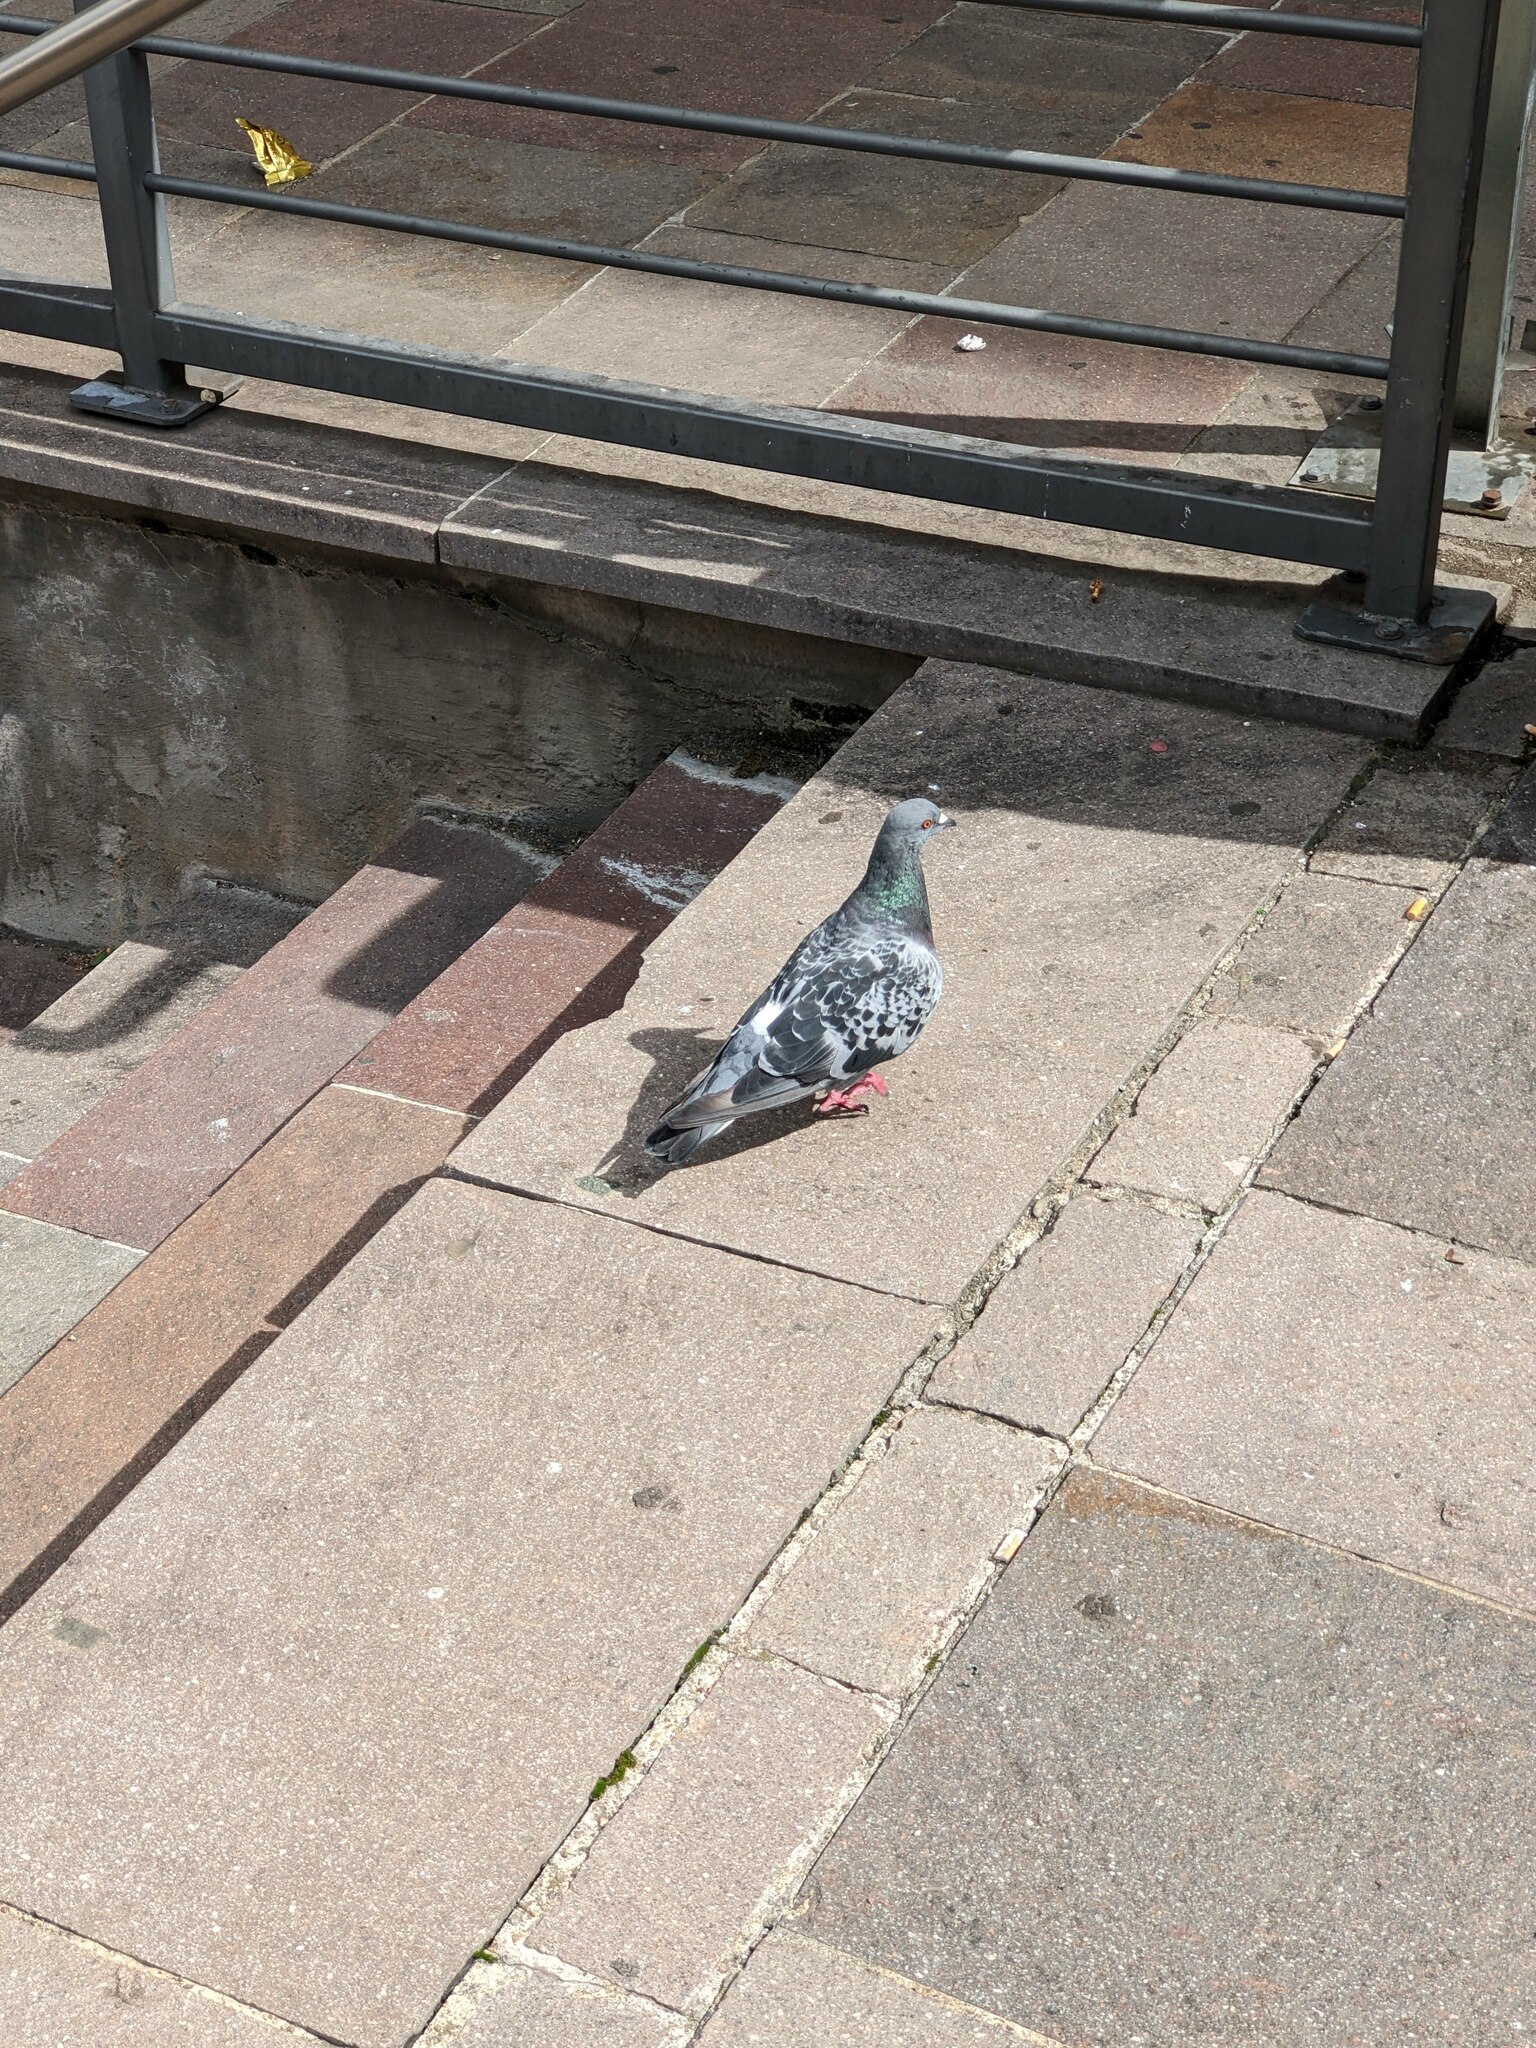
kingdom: Animalia
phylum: Chordata
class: Aves
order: Columbiformes
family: Columbidae
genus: Columba
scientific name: Columba livia
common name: Rock pigeon
